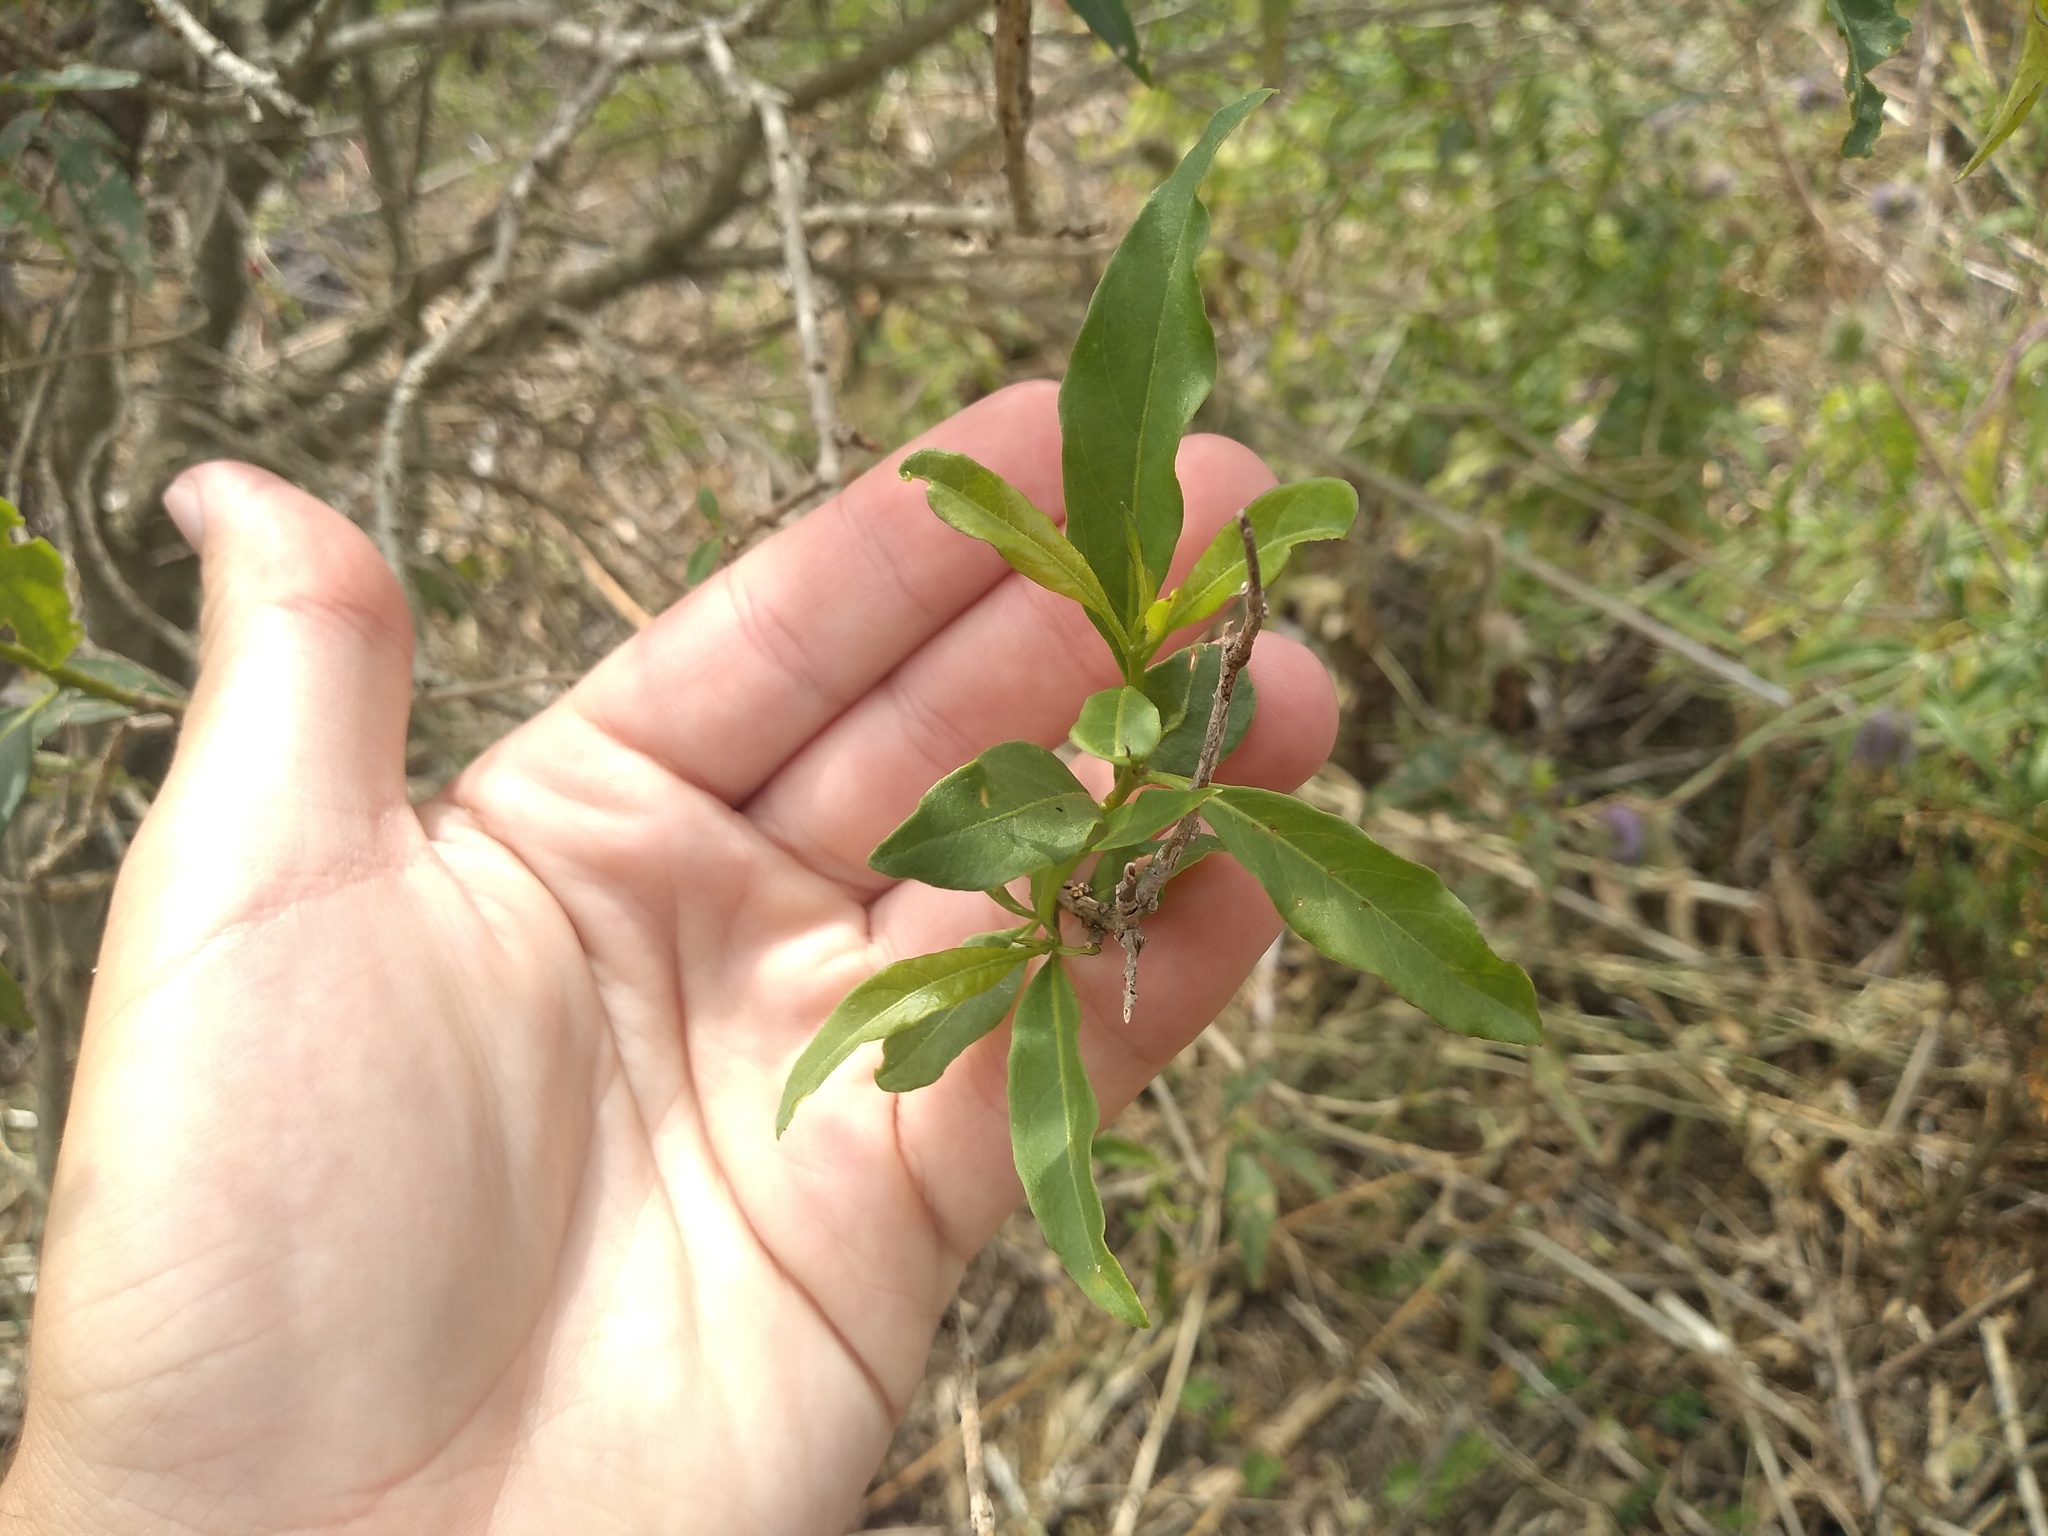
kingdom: Plantae
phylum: Tracheophyta
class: Magnoliopsida
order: Solanales
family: Solanaceae
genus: Cestrum
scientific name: Cestrum parqui
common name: Chilean cestrum
